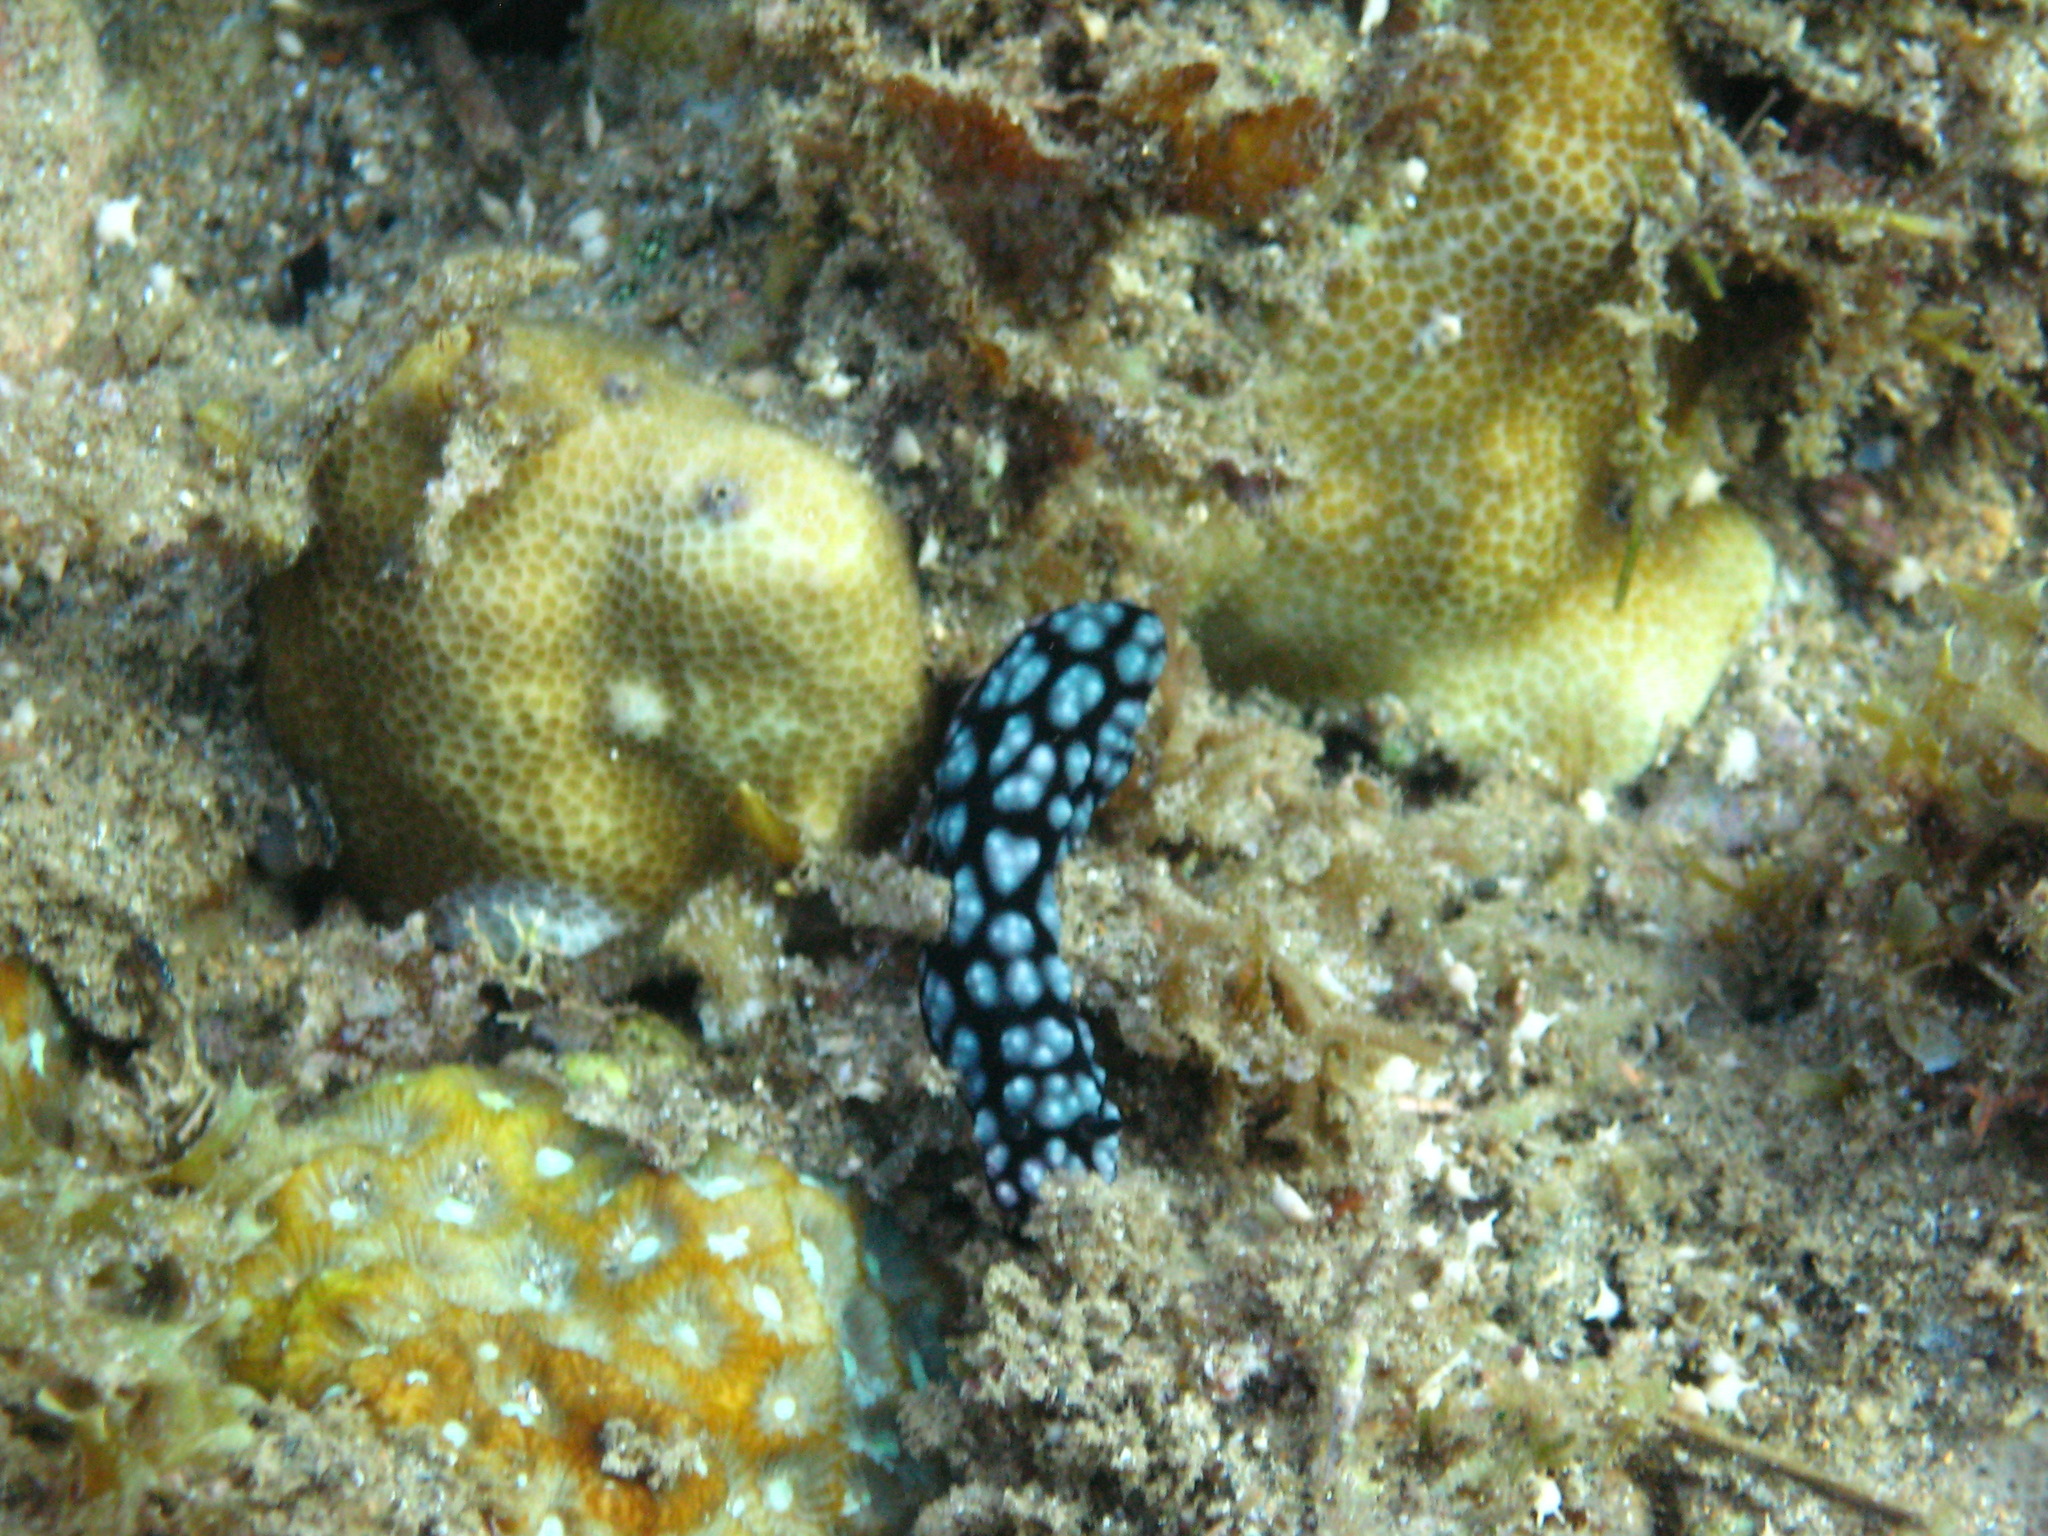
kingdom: Animalia
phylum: Mollusca
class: Gastropoda
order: Nudibranchia
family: Phyllidiidae
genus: Phyllidiella
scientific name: Phyllidiella pustulosa
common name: Pustular phyllidia
